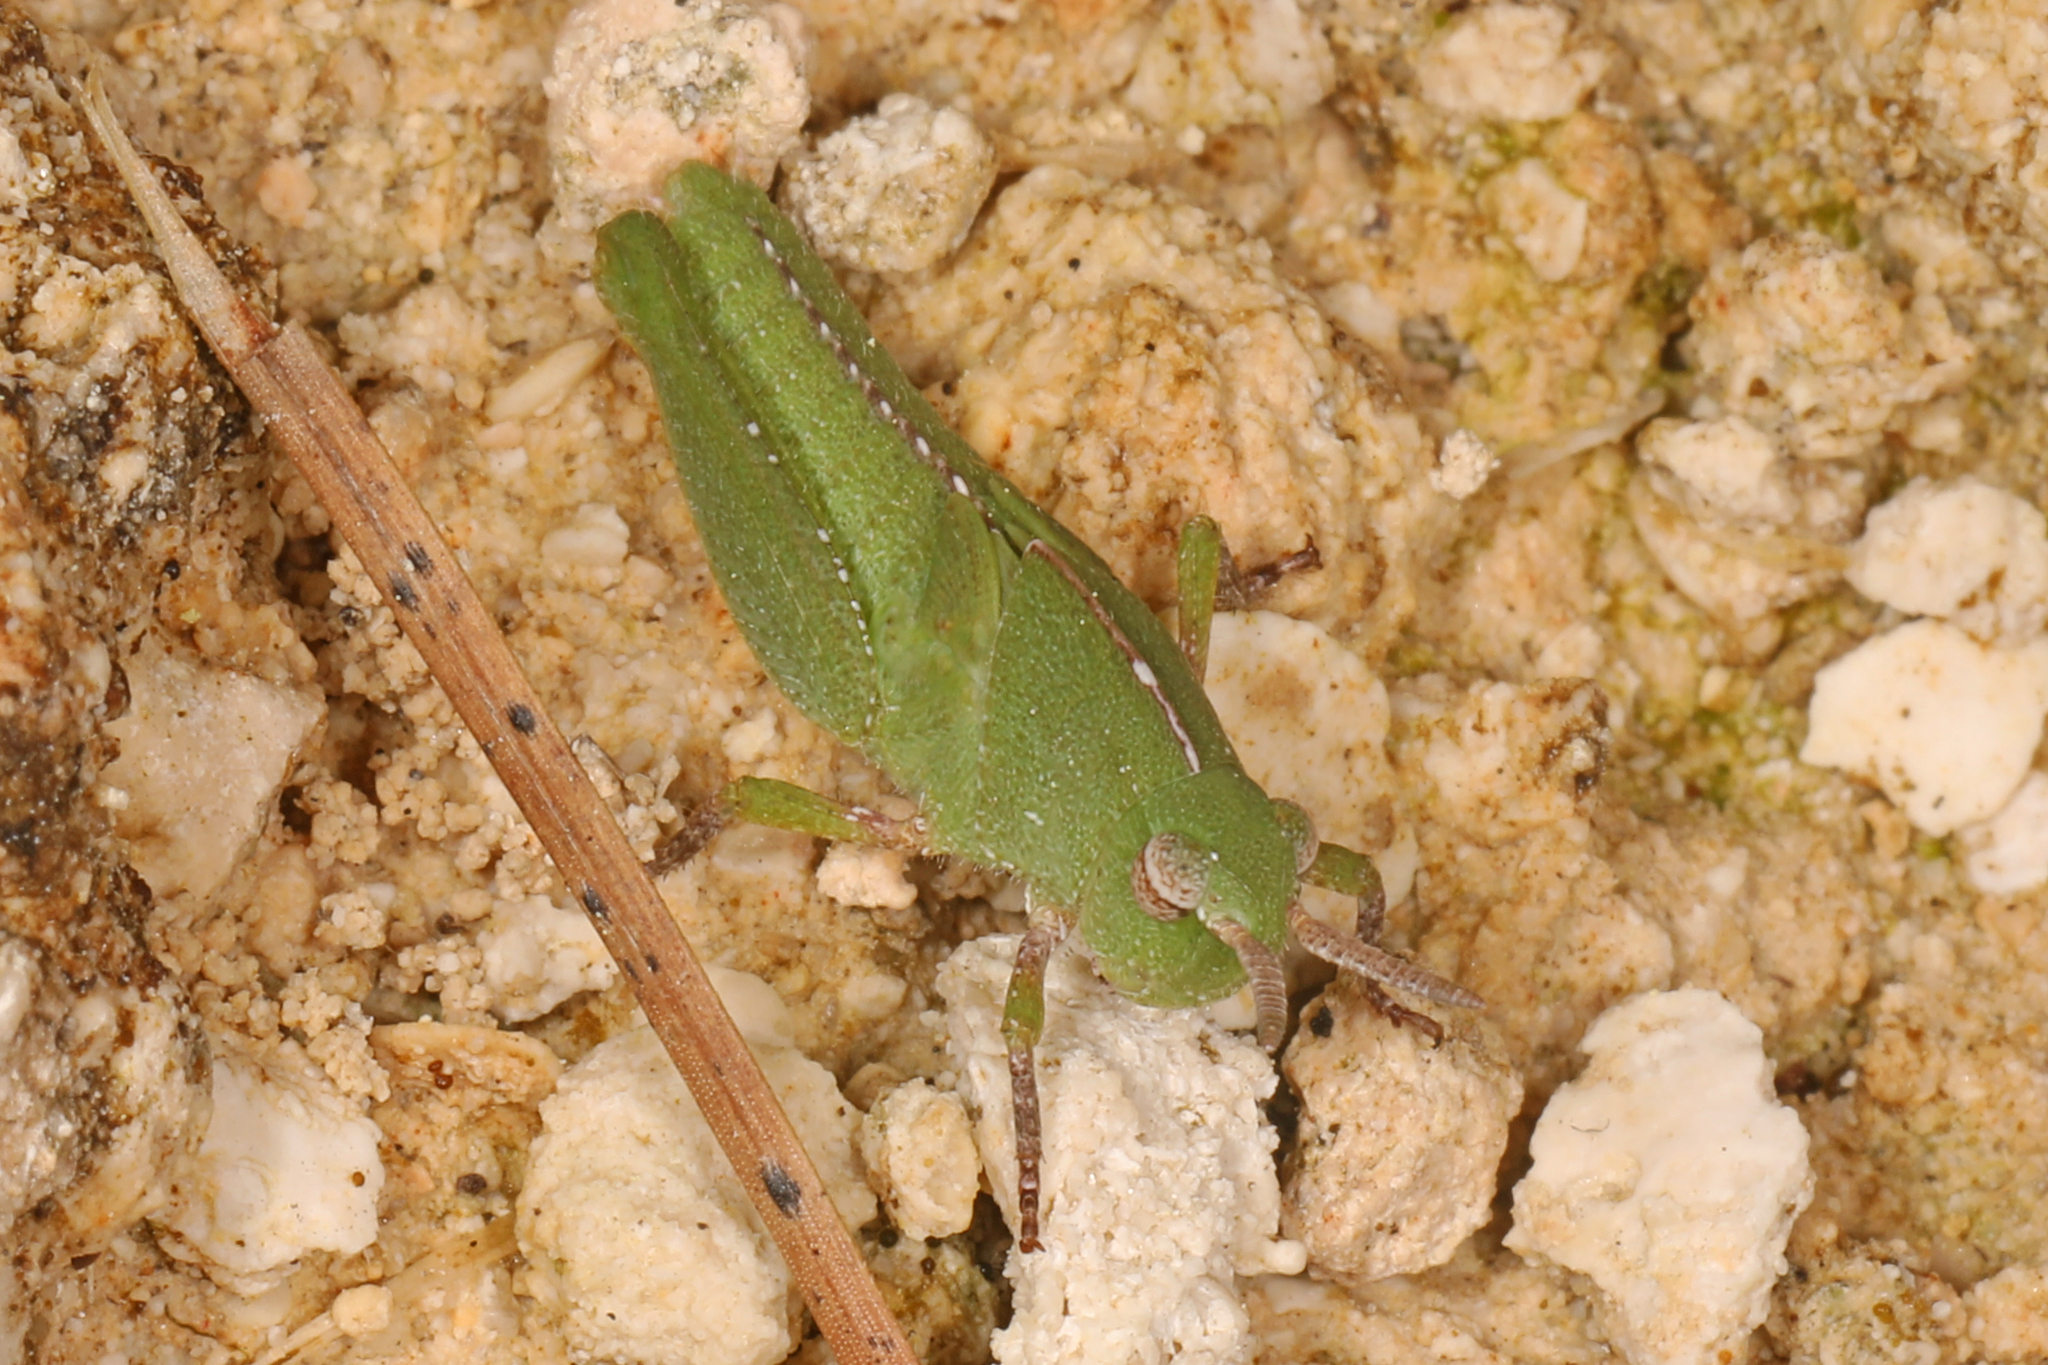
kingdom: Animalia
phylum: Arthropoda
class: Insecta
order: Orthoptera
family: Acrididae
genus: Chortophaga
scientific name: Chortophaga australior
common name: Southern green-striped grasshopper
